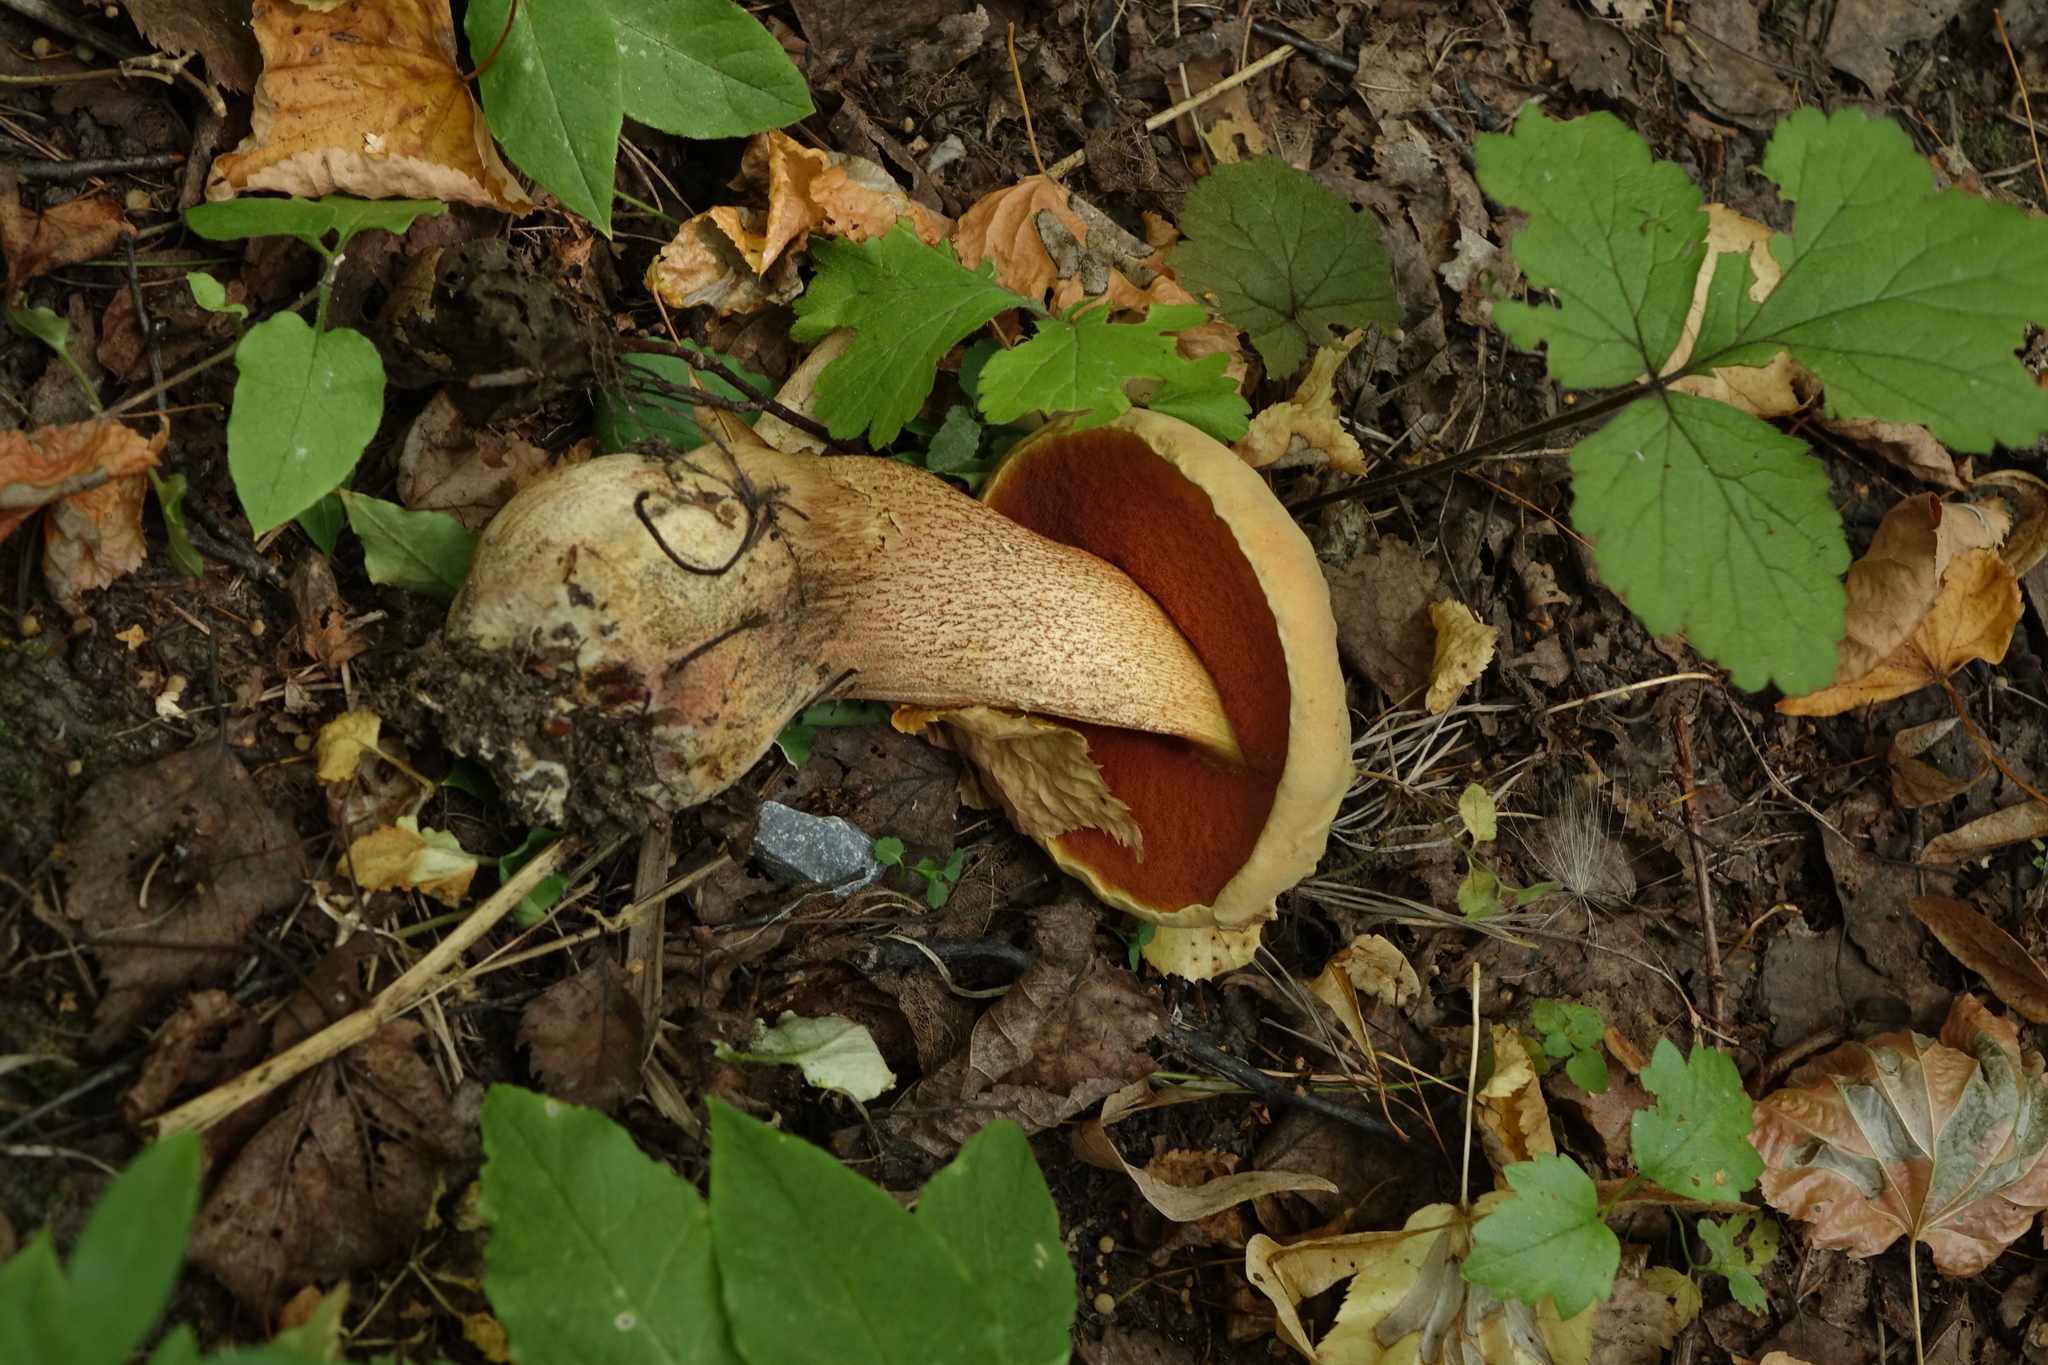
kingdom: Fungi
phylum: Basidiomycota
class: Agaricomycetes
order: Boletales
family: Boletaceae
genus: Suillellus
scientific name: Suillellus luridus
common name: Lurid bolete
